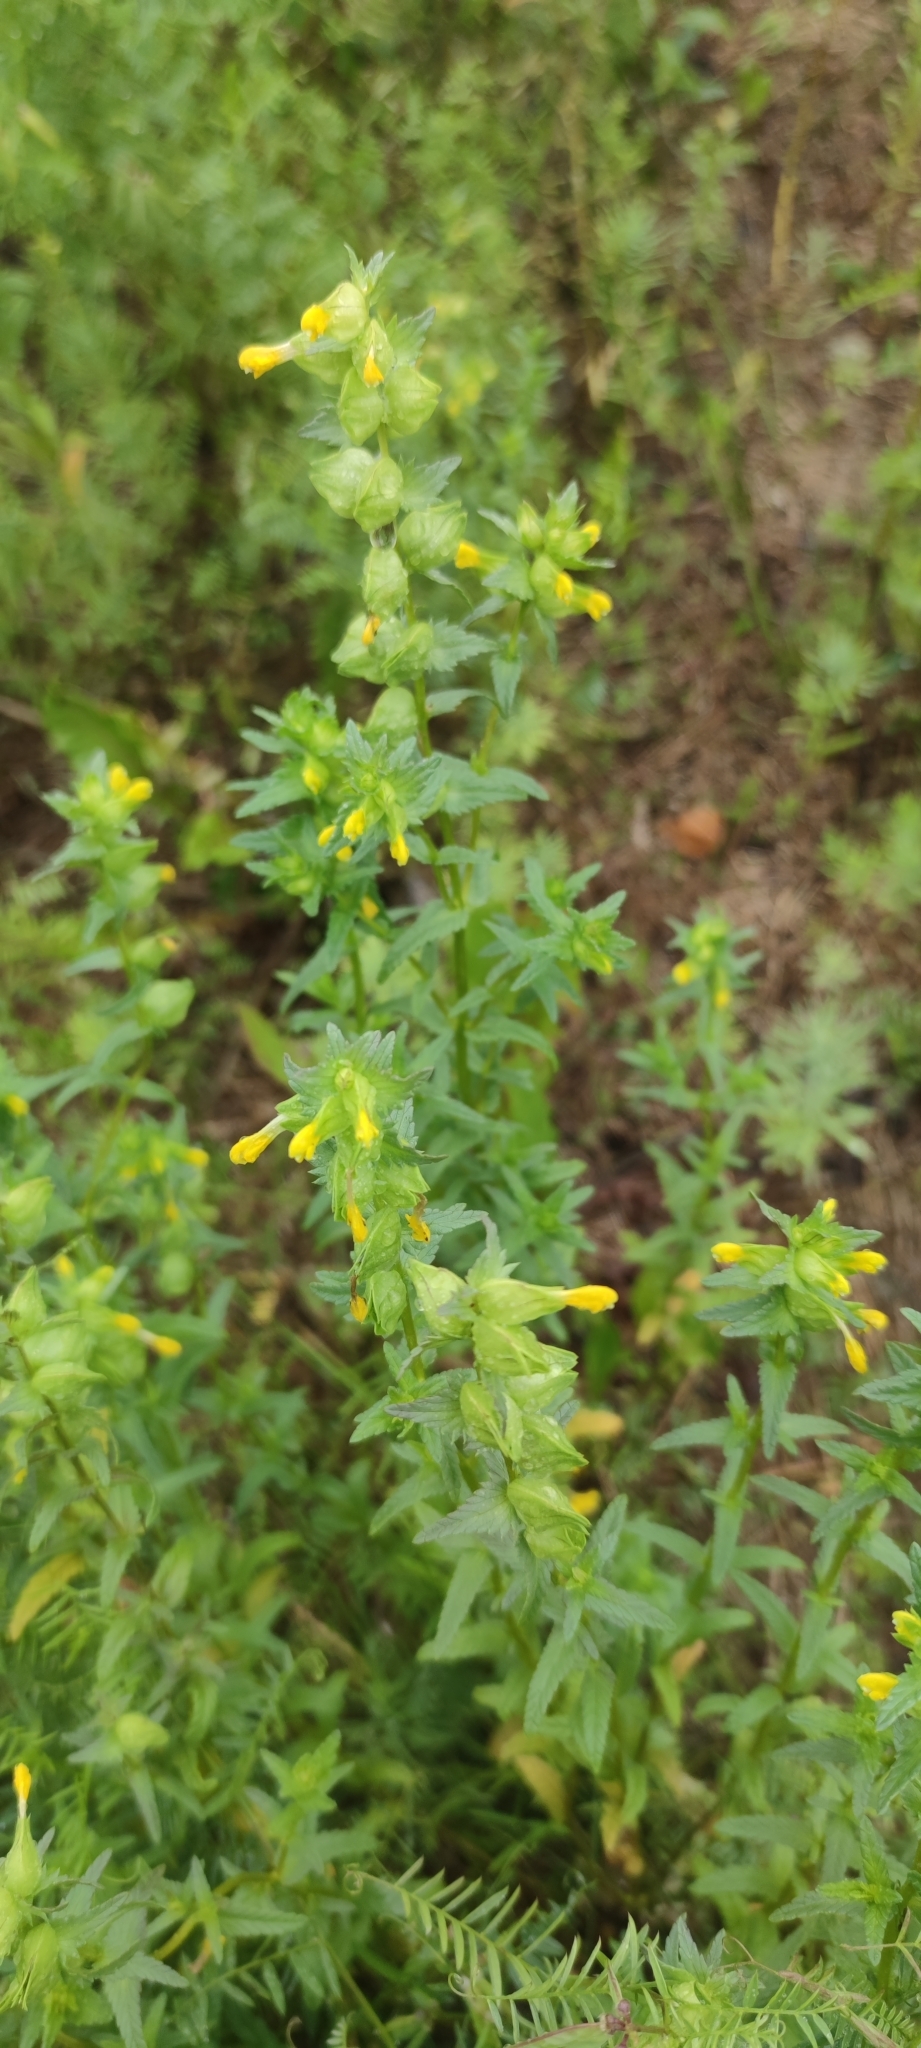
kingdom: Plantae
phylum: Tracheophyta
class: Magnoliopsida
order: Lamiales
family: Orobanchaceae
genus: Rhinanthus
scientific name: Rhinanthus minor
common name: Yellow-rattle
